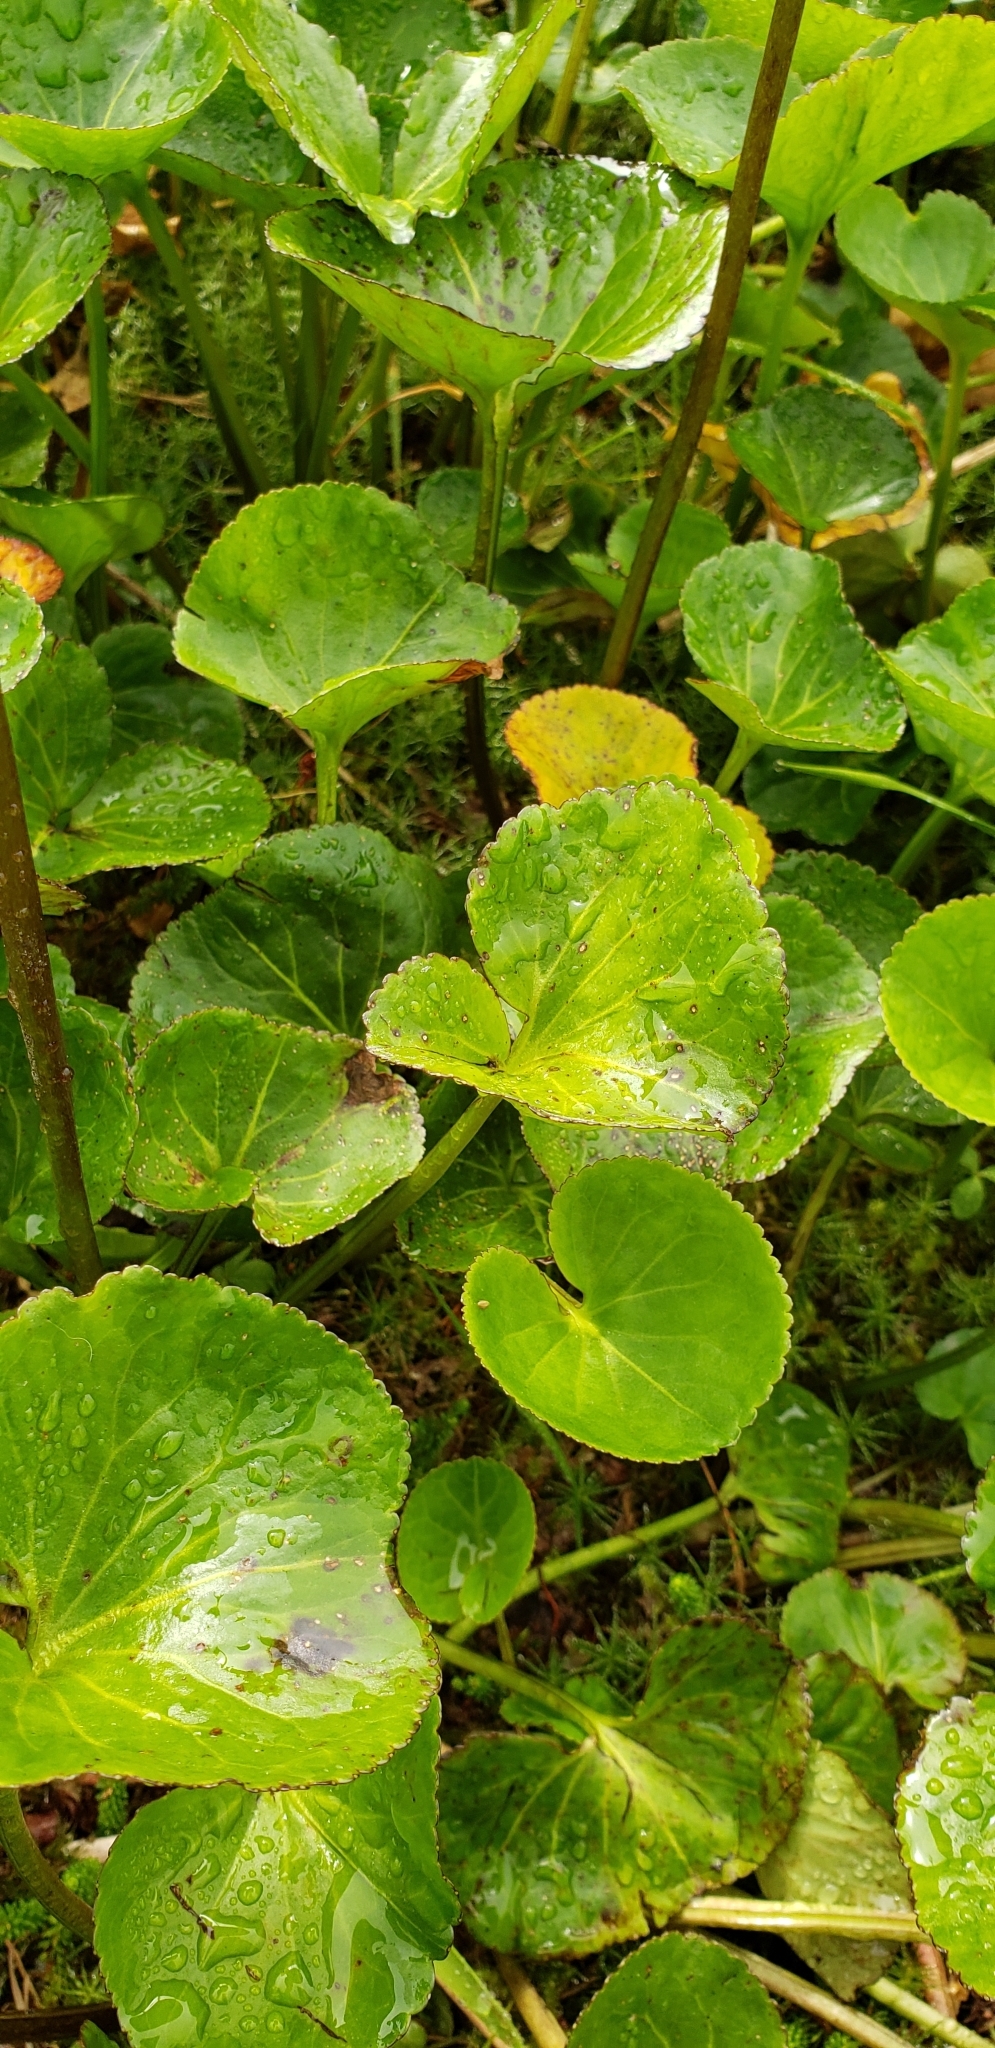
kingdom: Plantae
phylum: Tracheophyta
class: Magnoliopsida
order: Asterales
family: Menyanthaceae
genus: Nephrophyllidium
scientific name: Nephrophyllidium crista-galli
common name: Deer-cabbage
